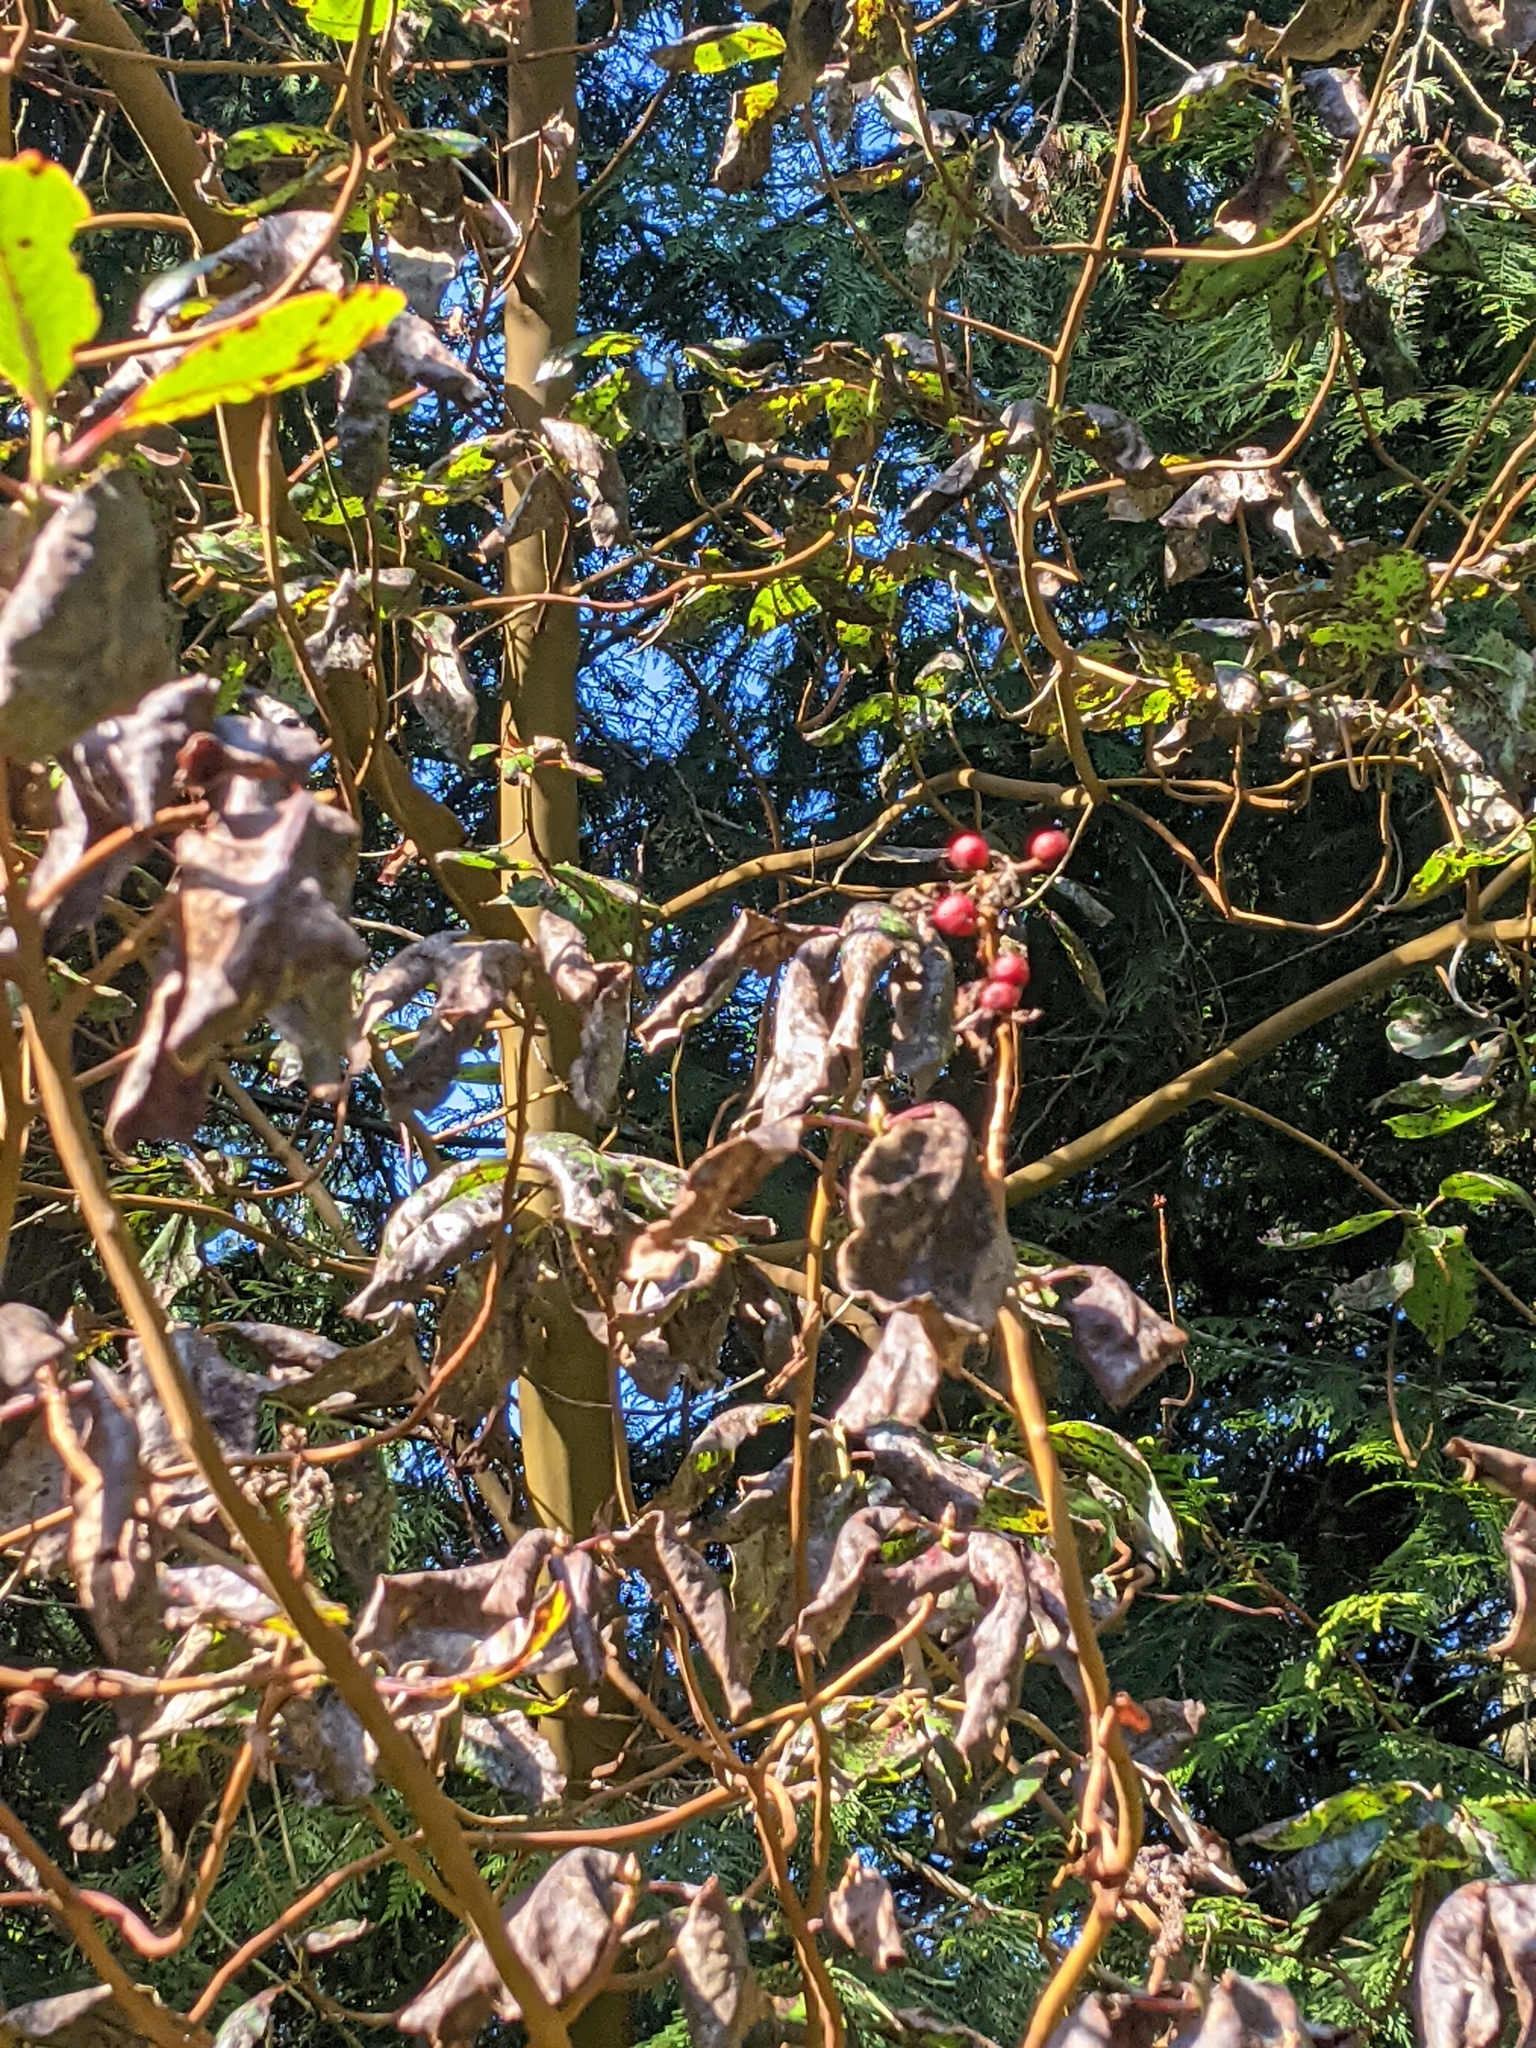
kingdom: Plantae
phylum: Tracheophyta
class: Magnoliopsida
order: Ericales
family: Ericaceae
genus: Arbutus
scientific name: Arbutus menziesii
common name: Pacific madrone
